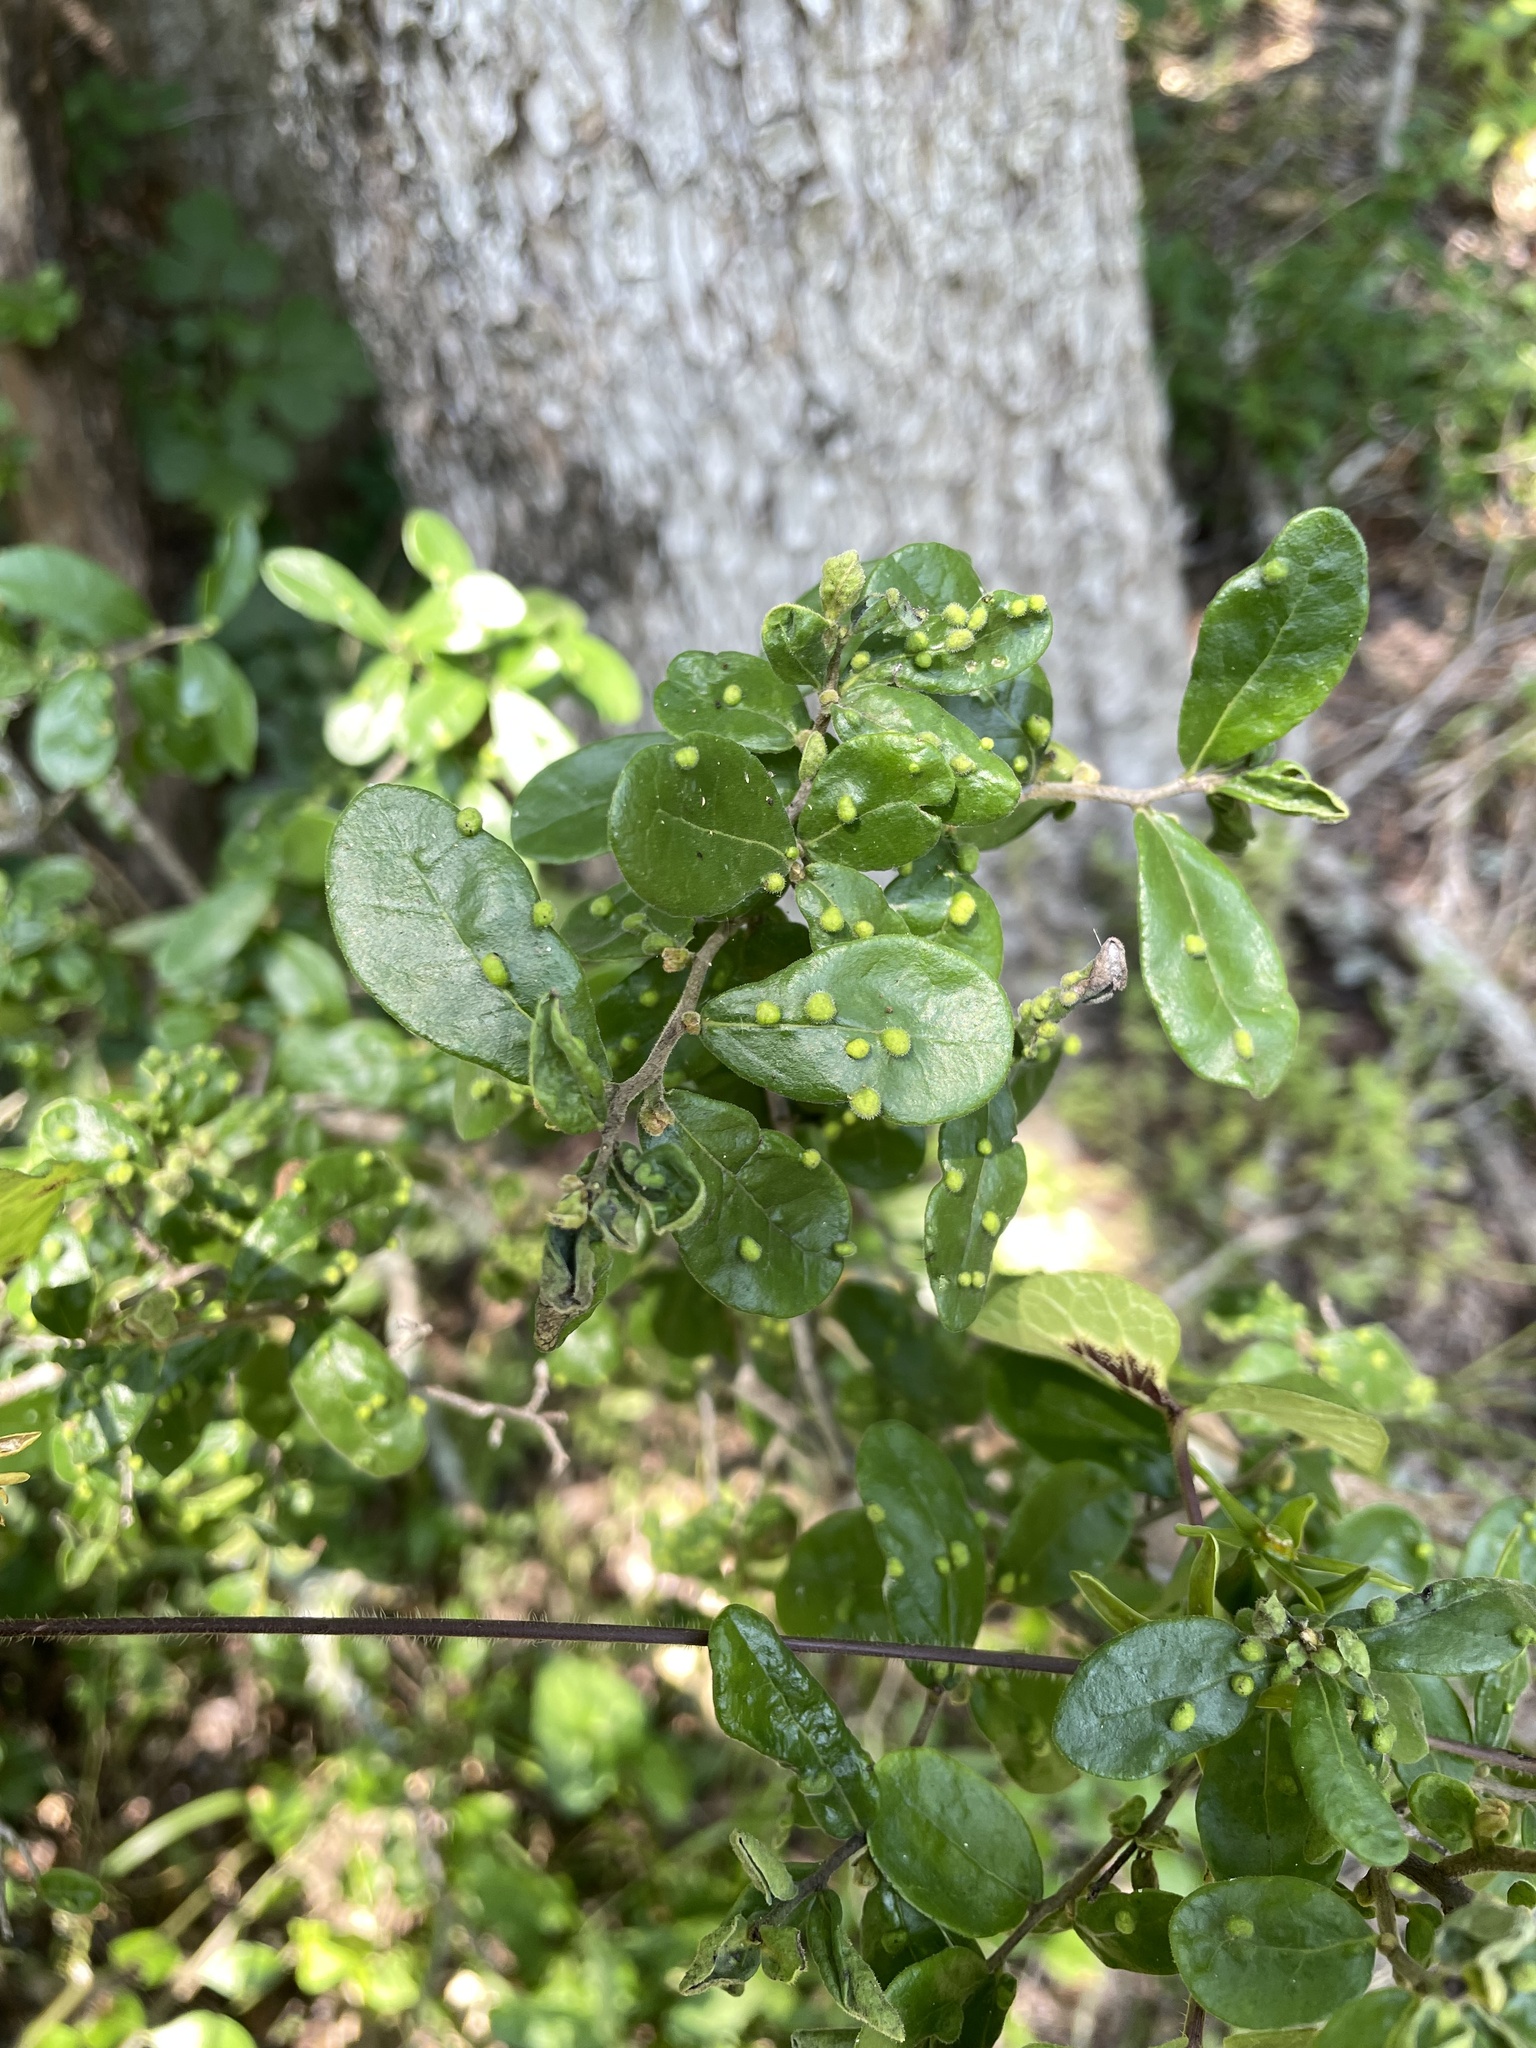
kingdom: Plantae
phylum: Tracheophyta
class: Magnoliopsida
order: Ericales
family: Ebenaceae
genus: Diospyros
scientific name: Diospyros texana
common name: Texas persimmon
